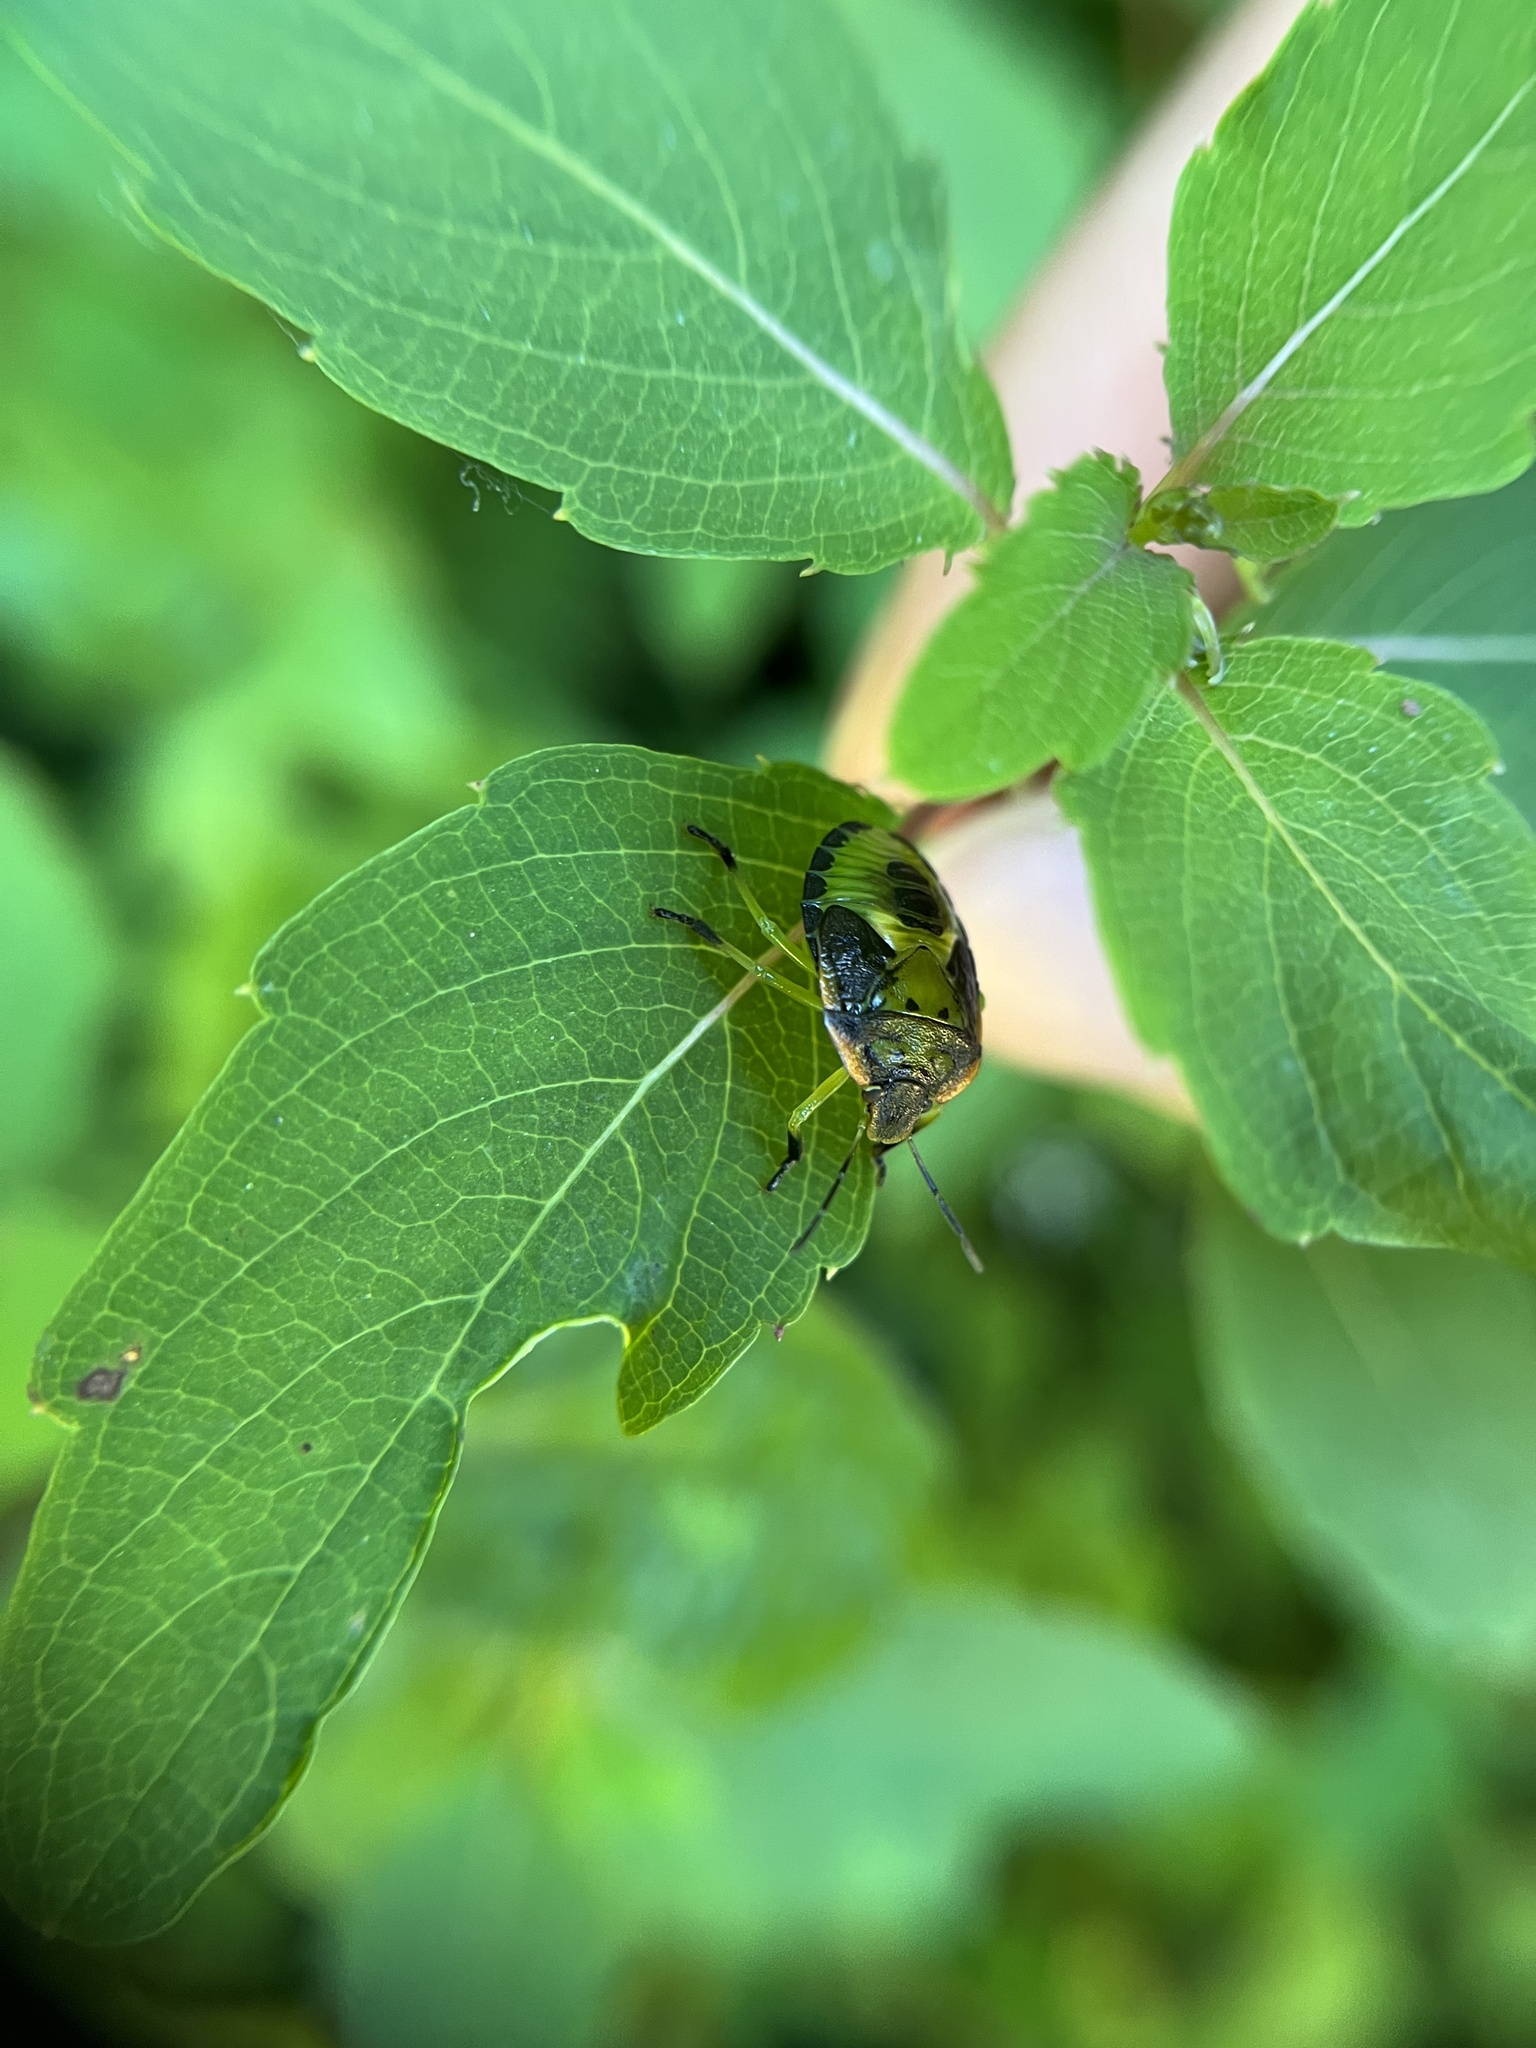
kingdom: Animalia
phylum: Arthropoda
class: Insecta
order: Hemiptera
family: Pentatomidae
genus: Chinavia
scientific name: Chinavia hilaris
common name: Green stink bug
